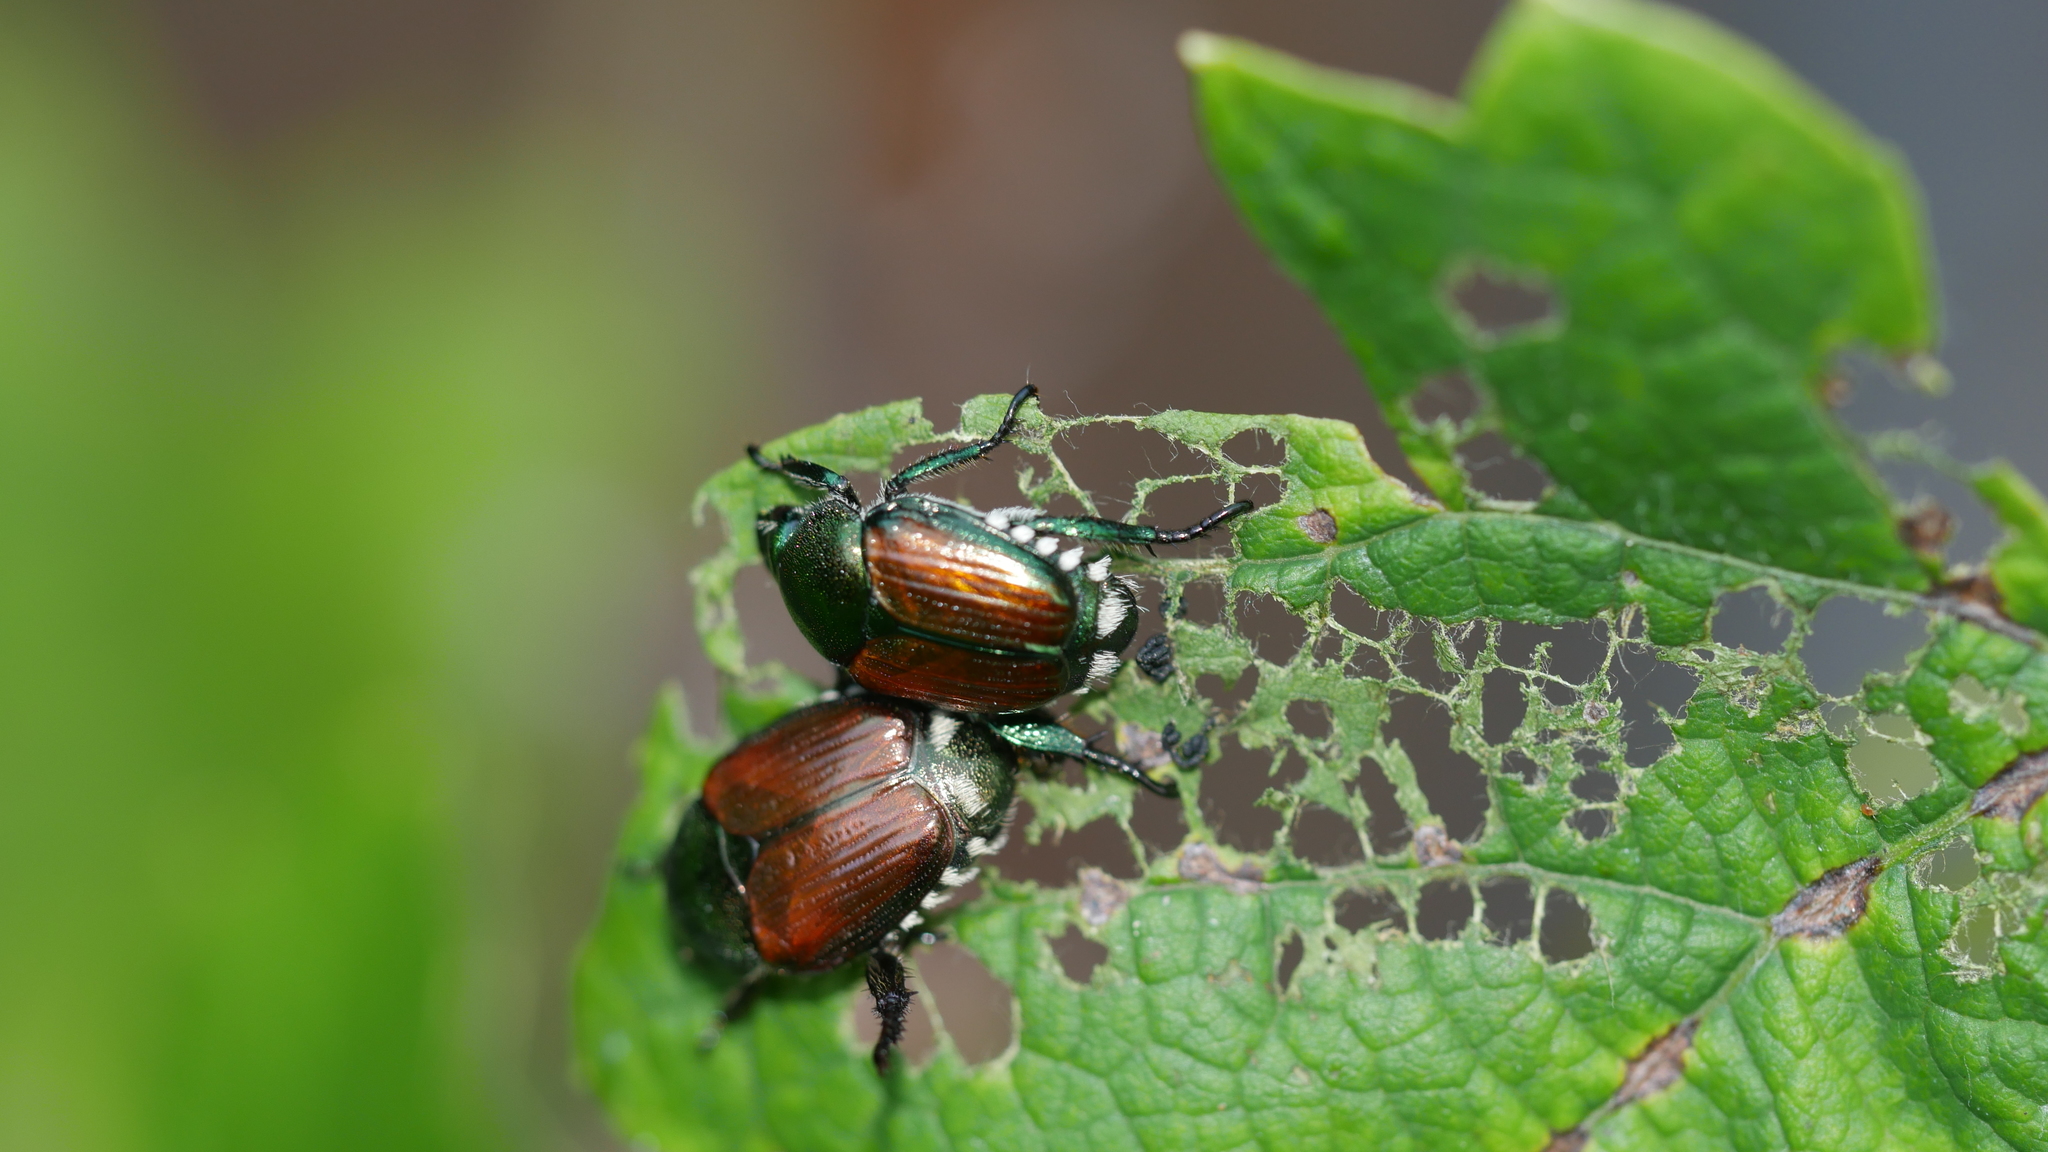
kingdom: Animalia
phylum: Arthropoda
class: Insecta
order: Coleoptera
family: Scarabaeidae
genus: Popillia
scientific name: Popillia japonica
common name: Japanese beetle
